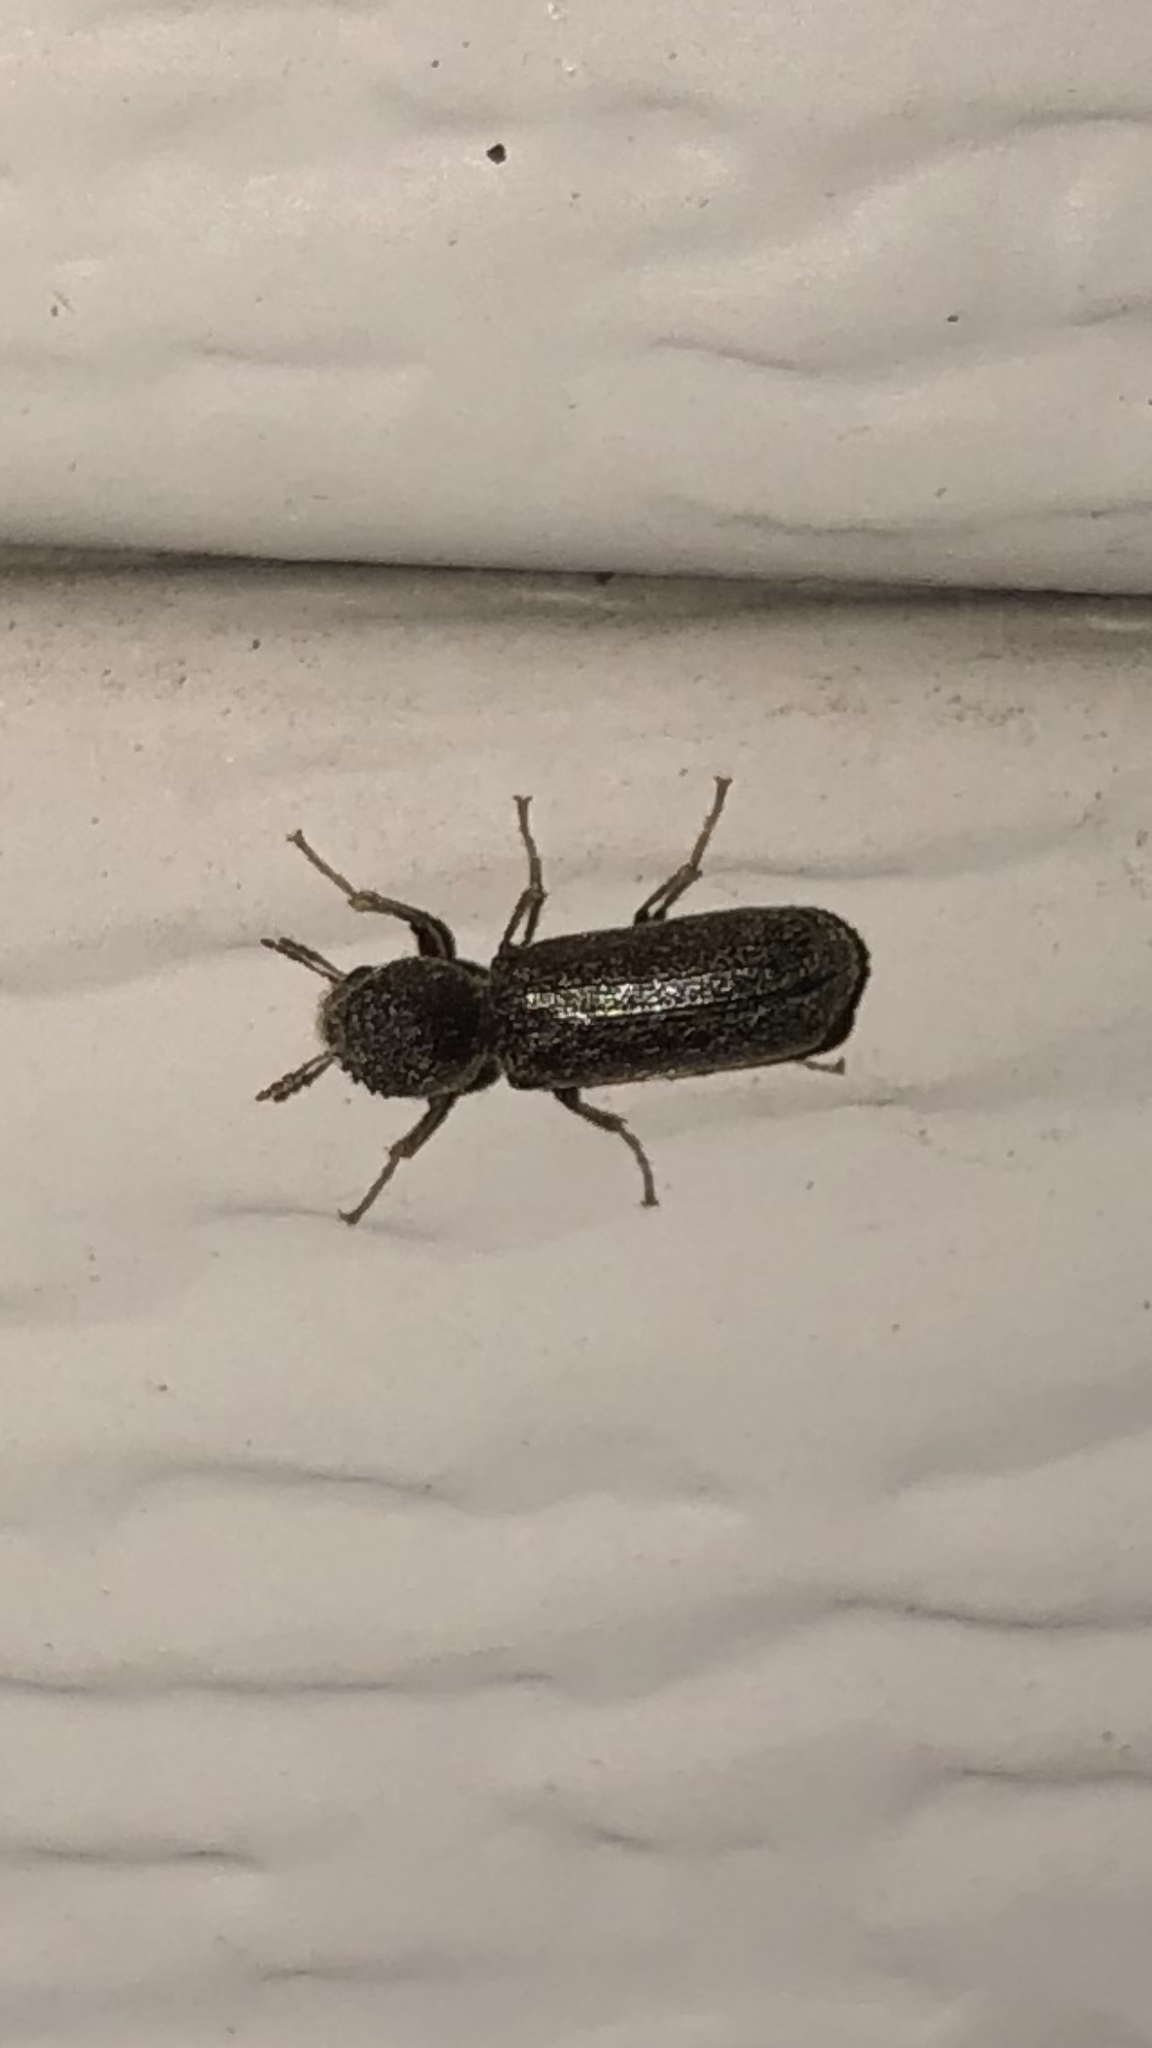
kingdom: Animalia
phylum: Arthropoda
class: Insecta
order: Coleoptera
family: Bostrichidae
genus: Amphicerus
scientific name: Amphicerus bicaudatus
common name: Apple twig borer
